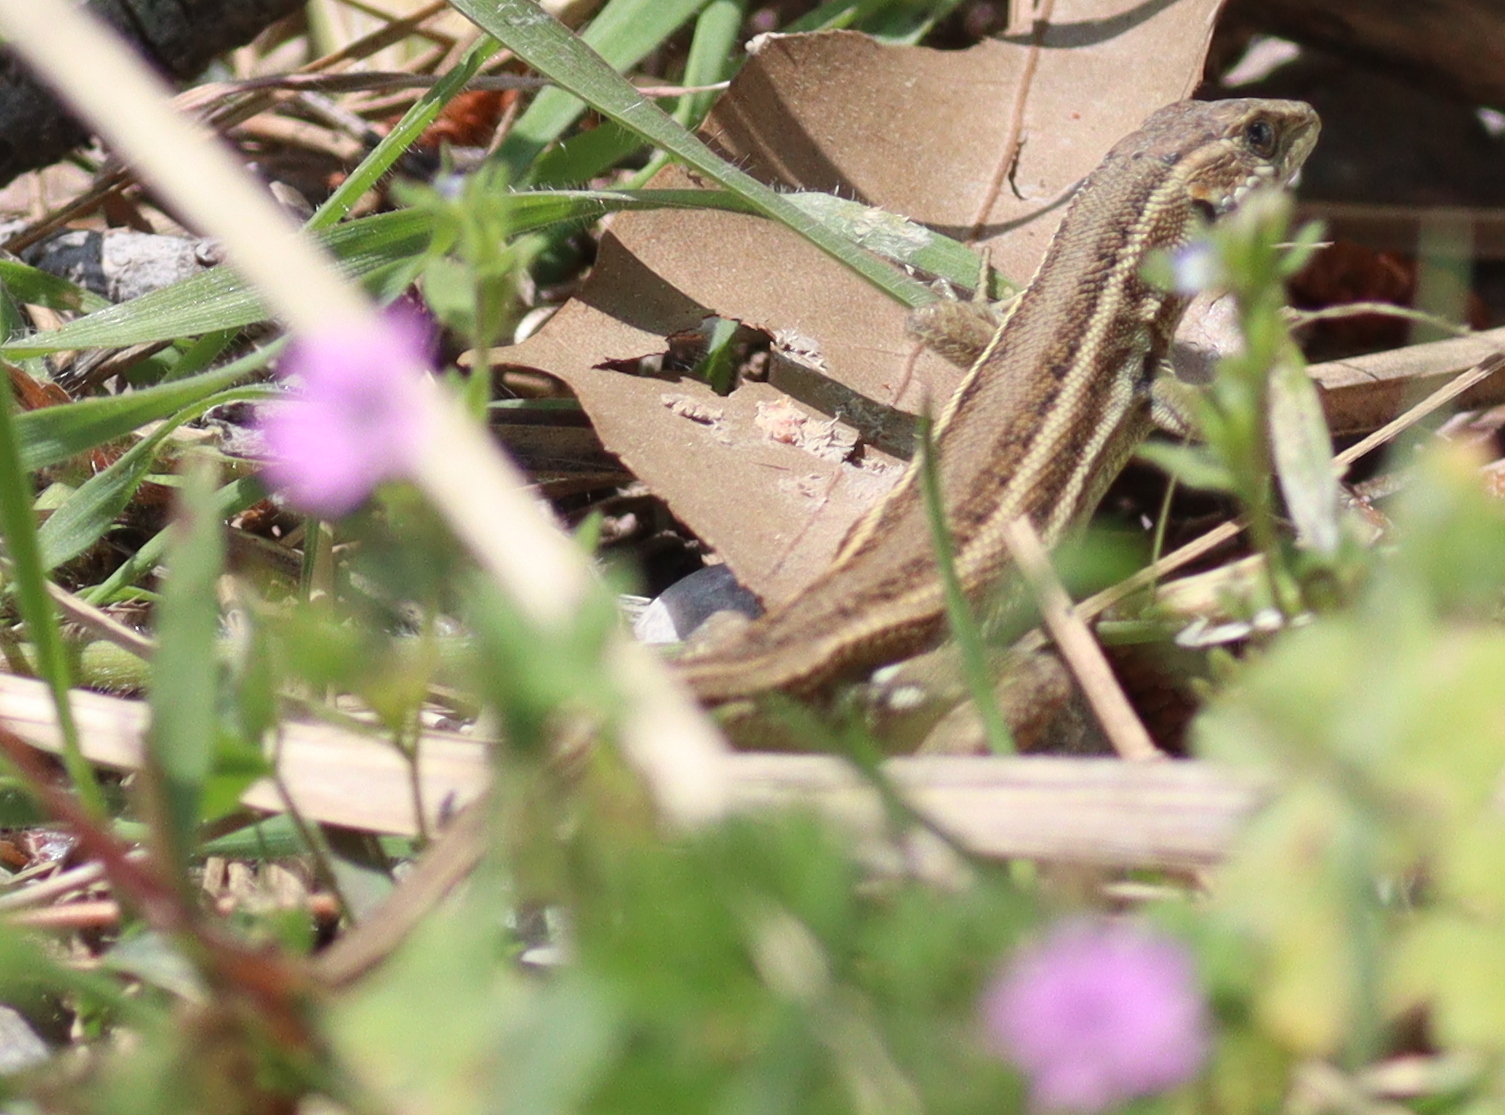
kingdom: Animalia
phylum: Chordata
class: Squamata
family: Lacertidae
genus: Ophisops
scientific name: Ophisops elegans
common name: Snake-eyed lizard
